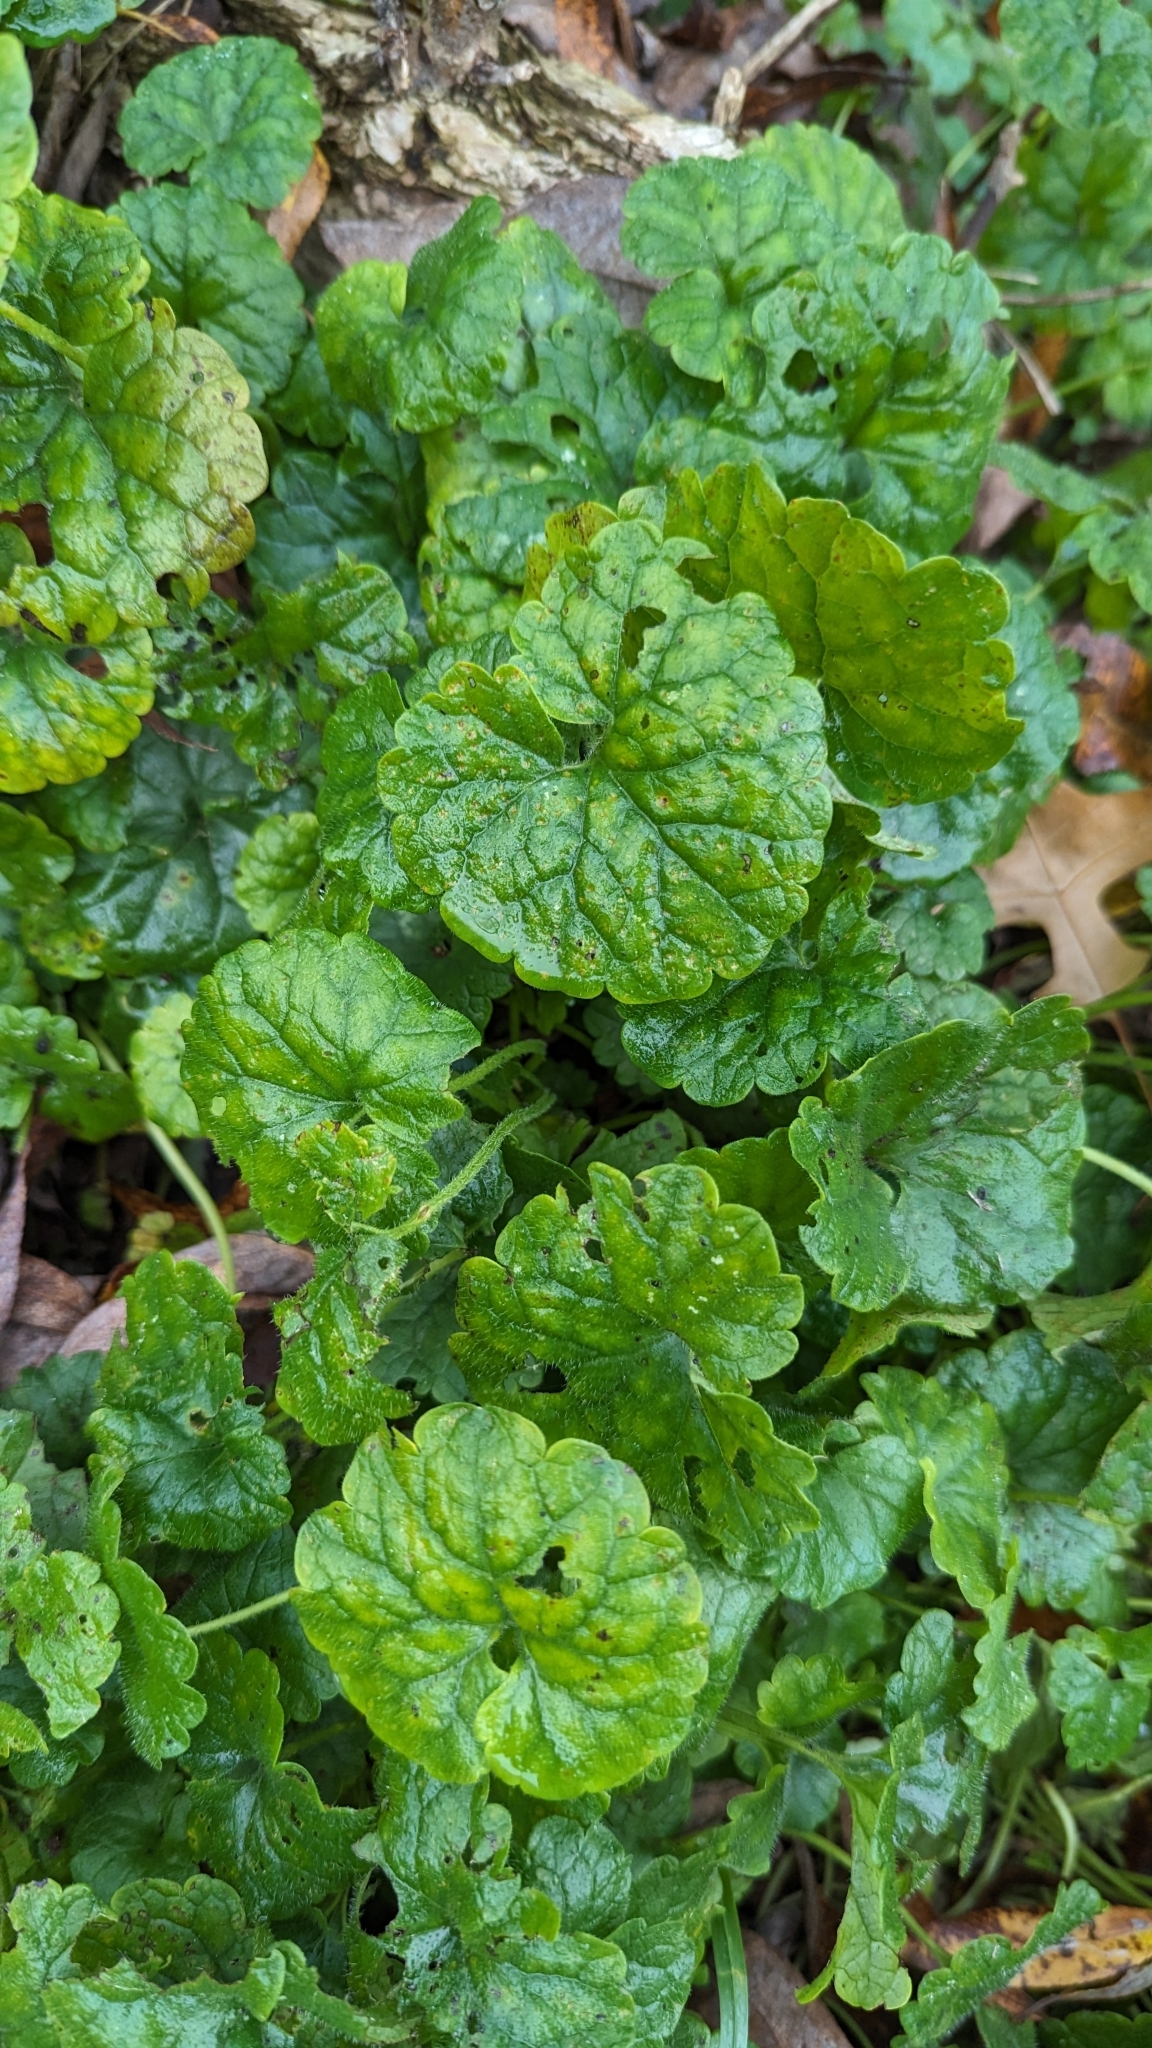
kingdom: Plantae
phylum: Tracheophyta
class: Magnoliopsida
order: Lamiales
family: Lamiaceae
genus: Glechoma
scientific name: Glechoma hederacea
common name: Ground ivy
